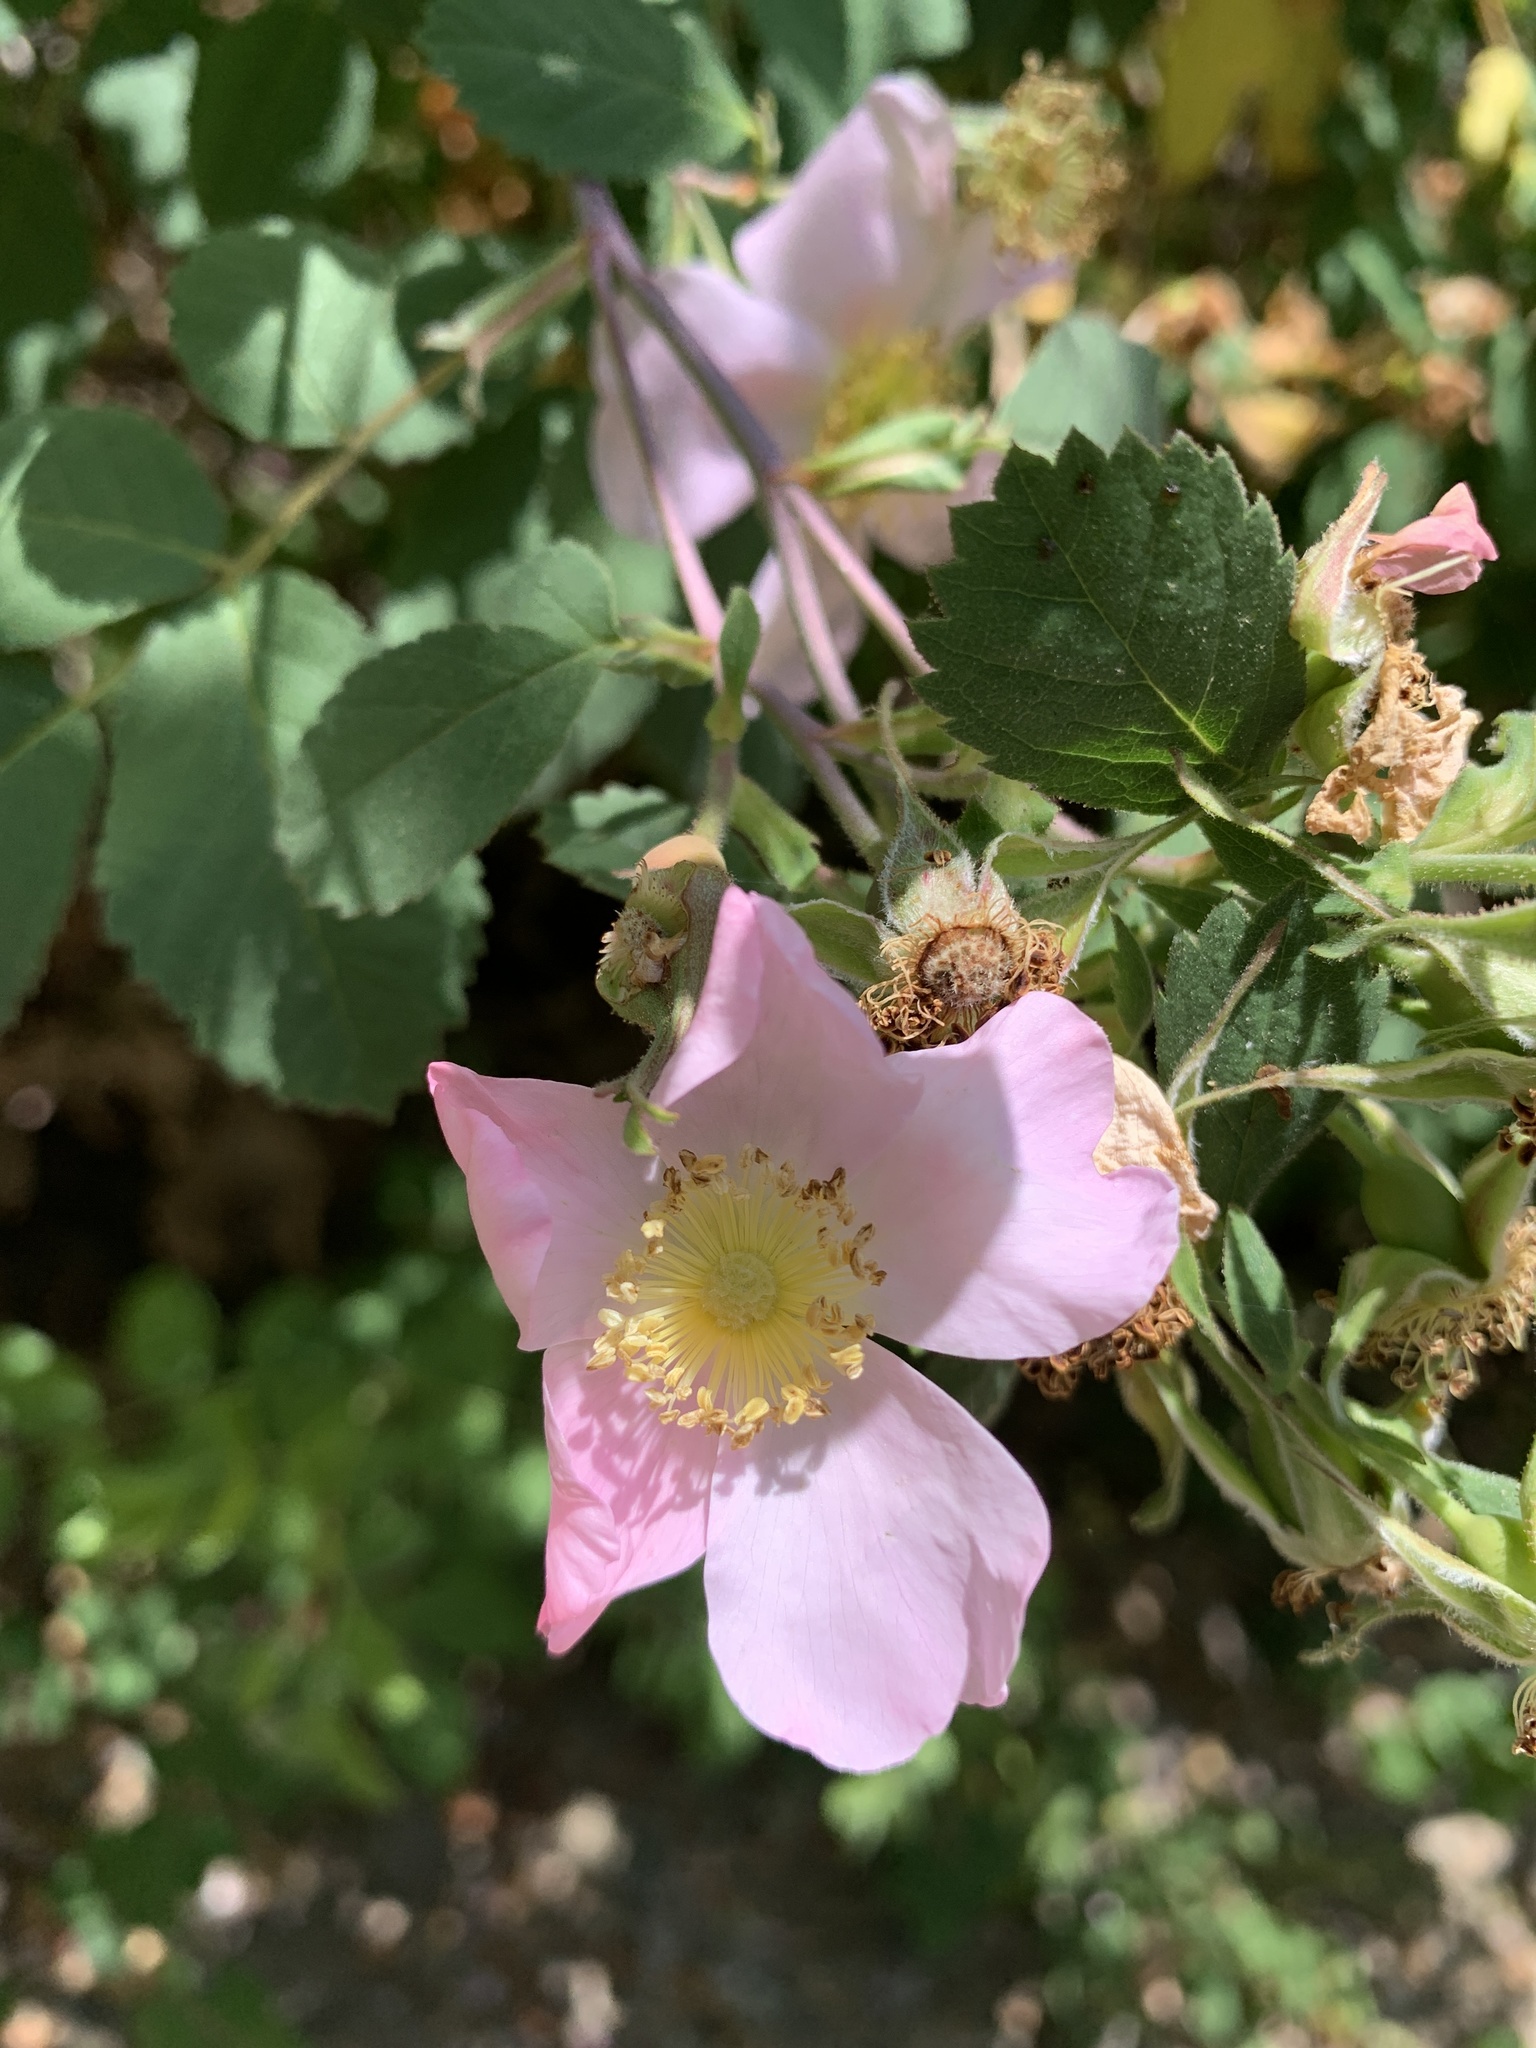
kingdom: Plantae
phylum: Tracheophyta
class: Magnoliopsida
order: Rosales
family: Rosaceae
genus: Rosa
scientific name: Rosa californica
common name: California rose
